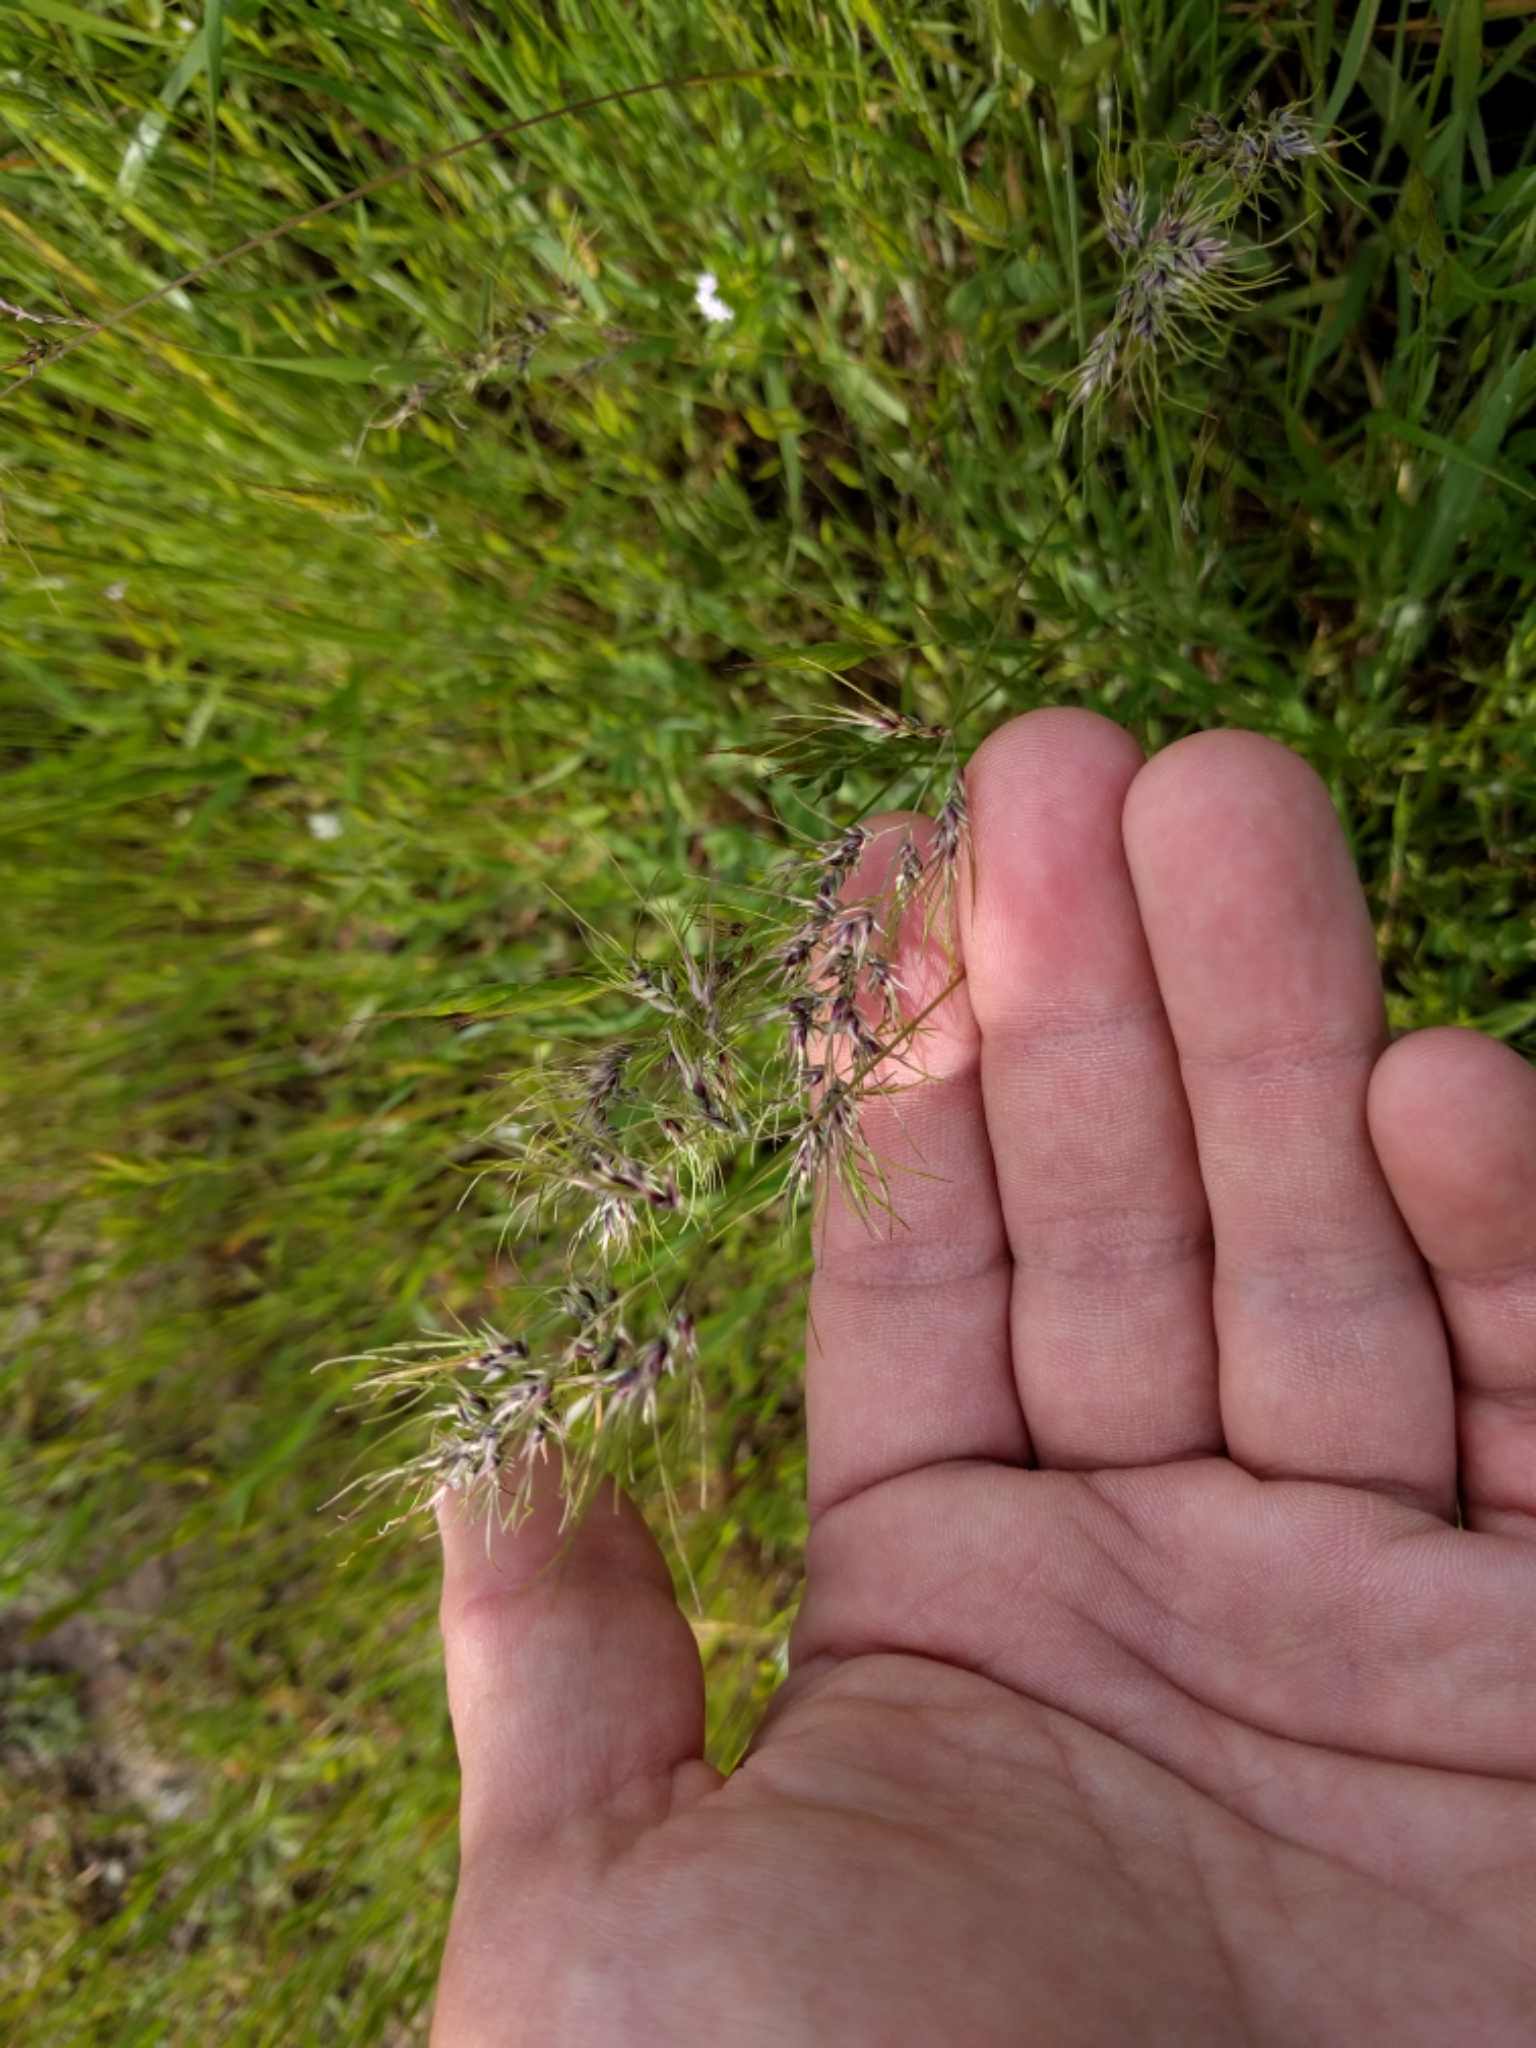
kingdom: Plantae
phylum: Tracheophyta
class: Liliopsida
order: Poales
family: Poaceae
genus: Poa
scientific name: Poa bulbosa
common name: Bulbous bluegrass
